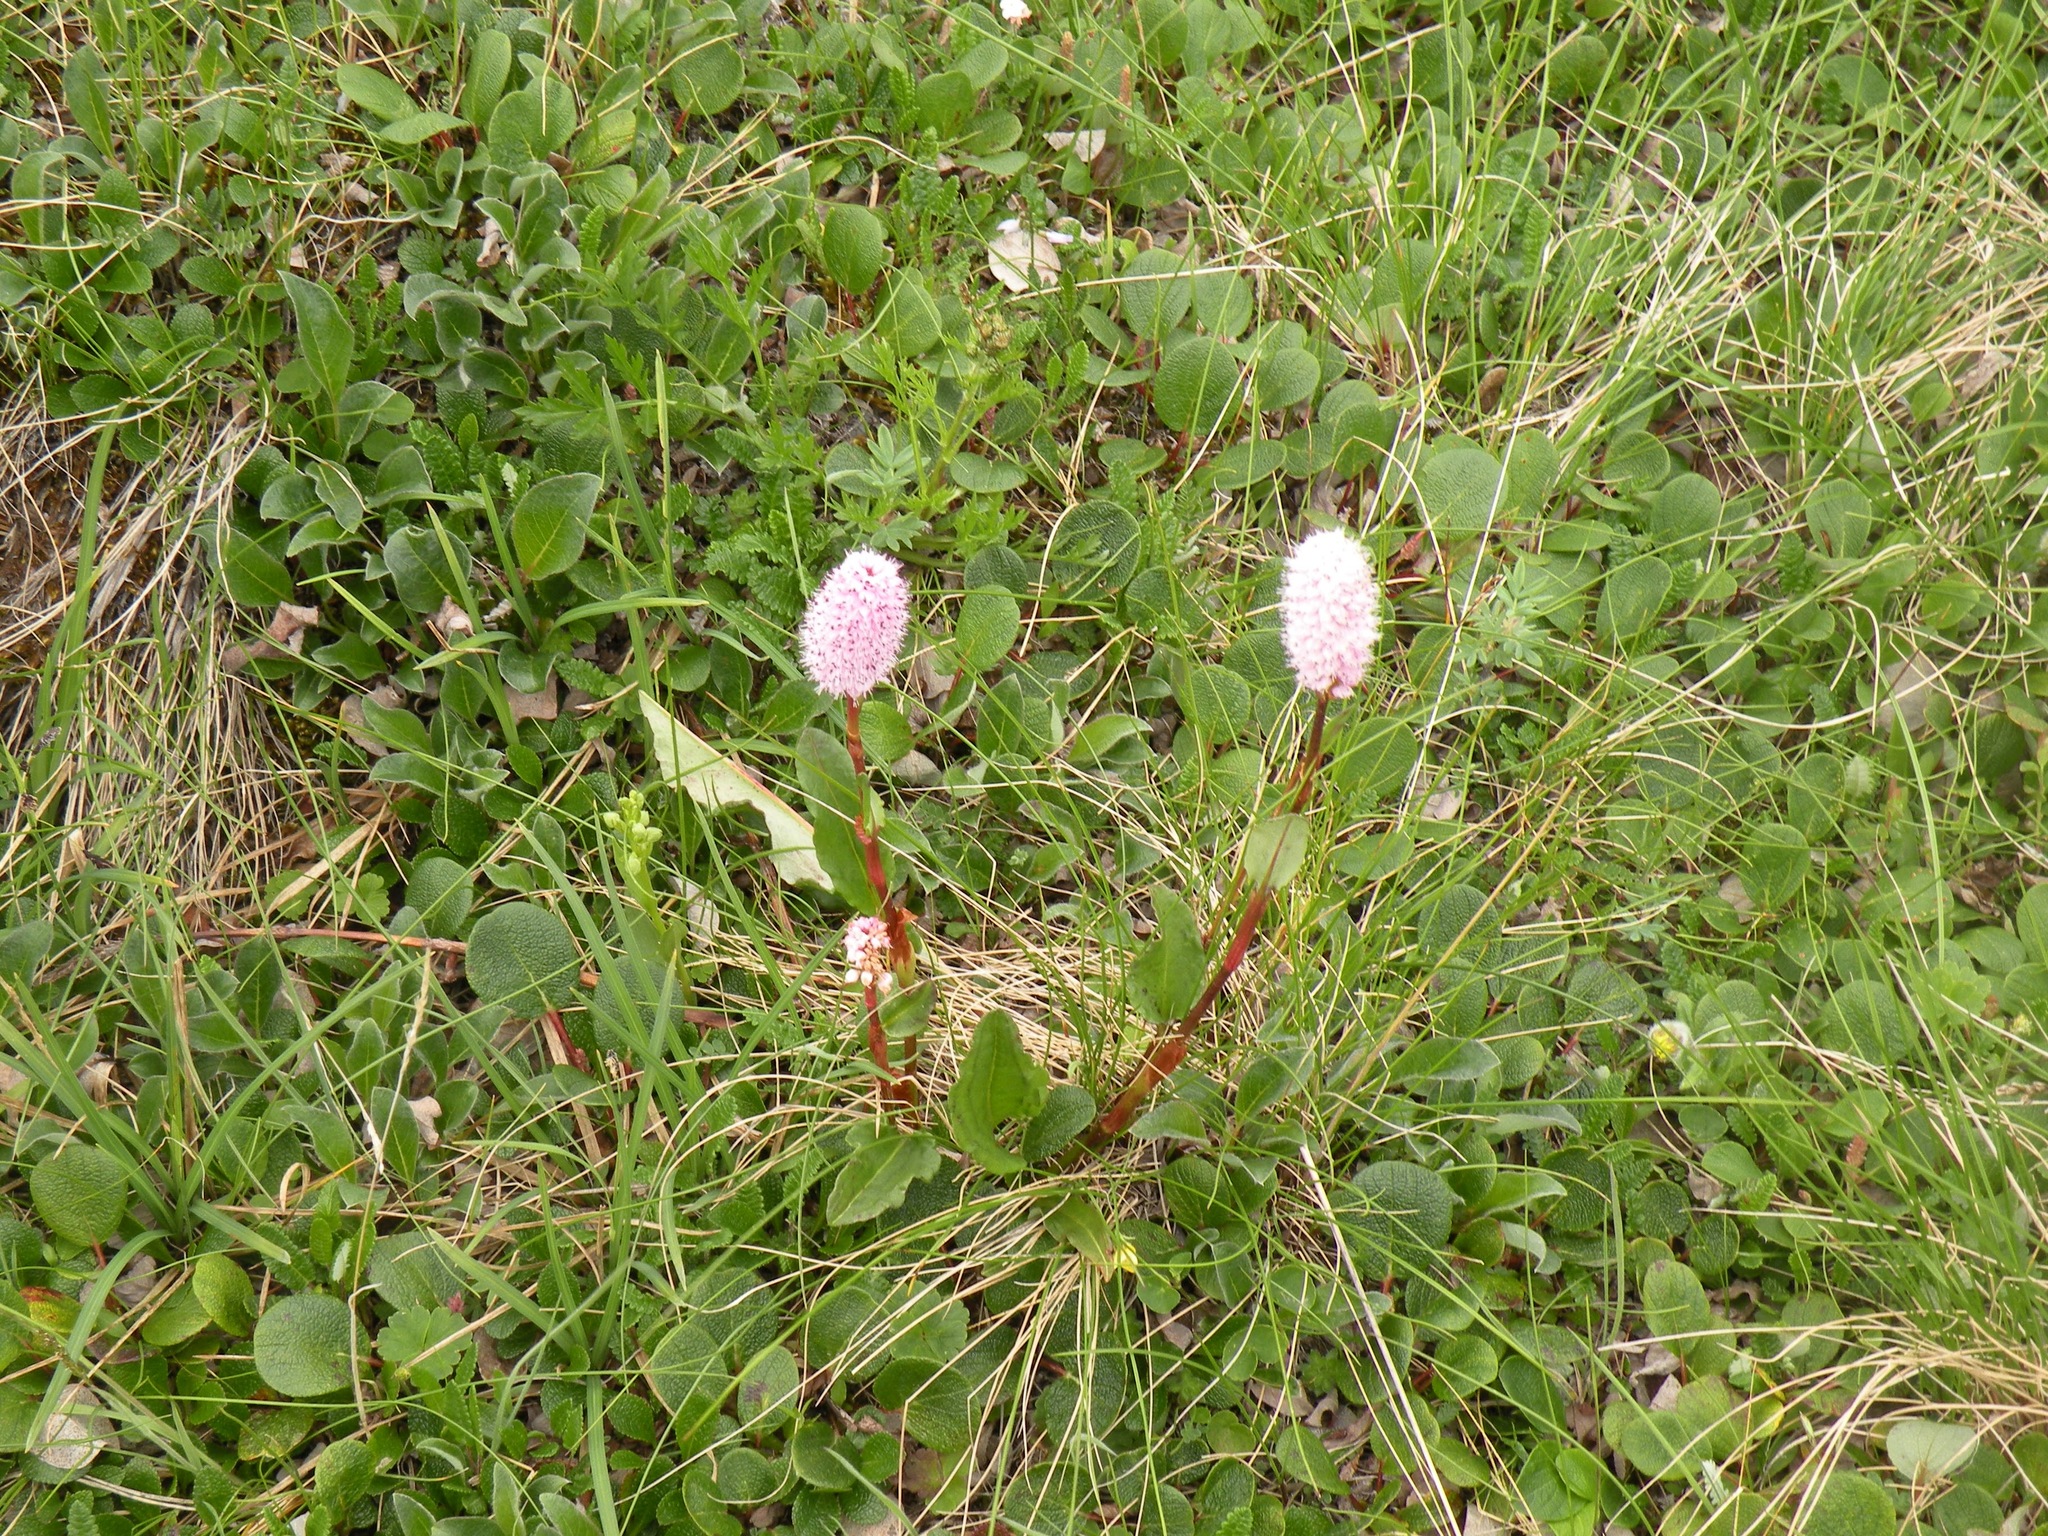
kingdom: Plantae
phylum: Tracheophyta
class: Magnoliopsida
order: Caryophyllales
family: Polygonaceae
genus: Bistorta
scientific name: Bistorta plumosa
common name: Meadow bistort
